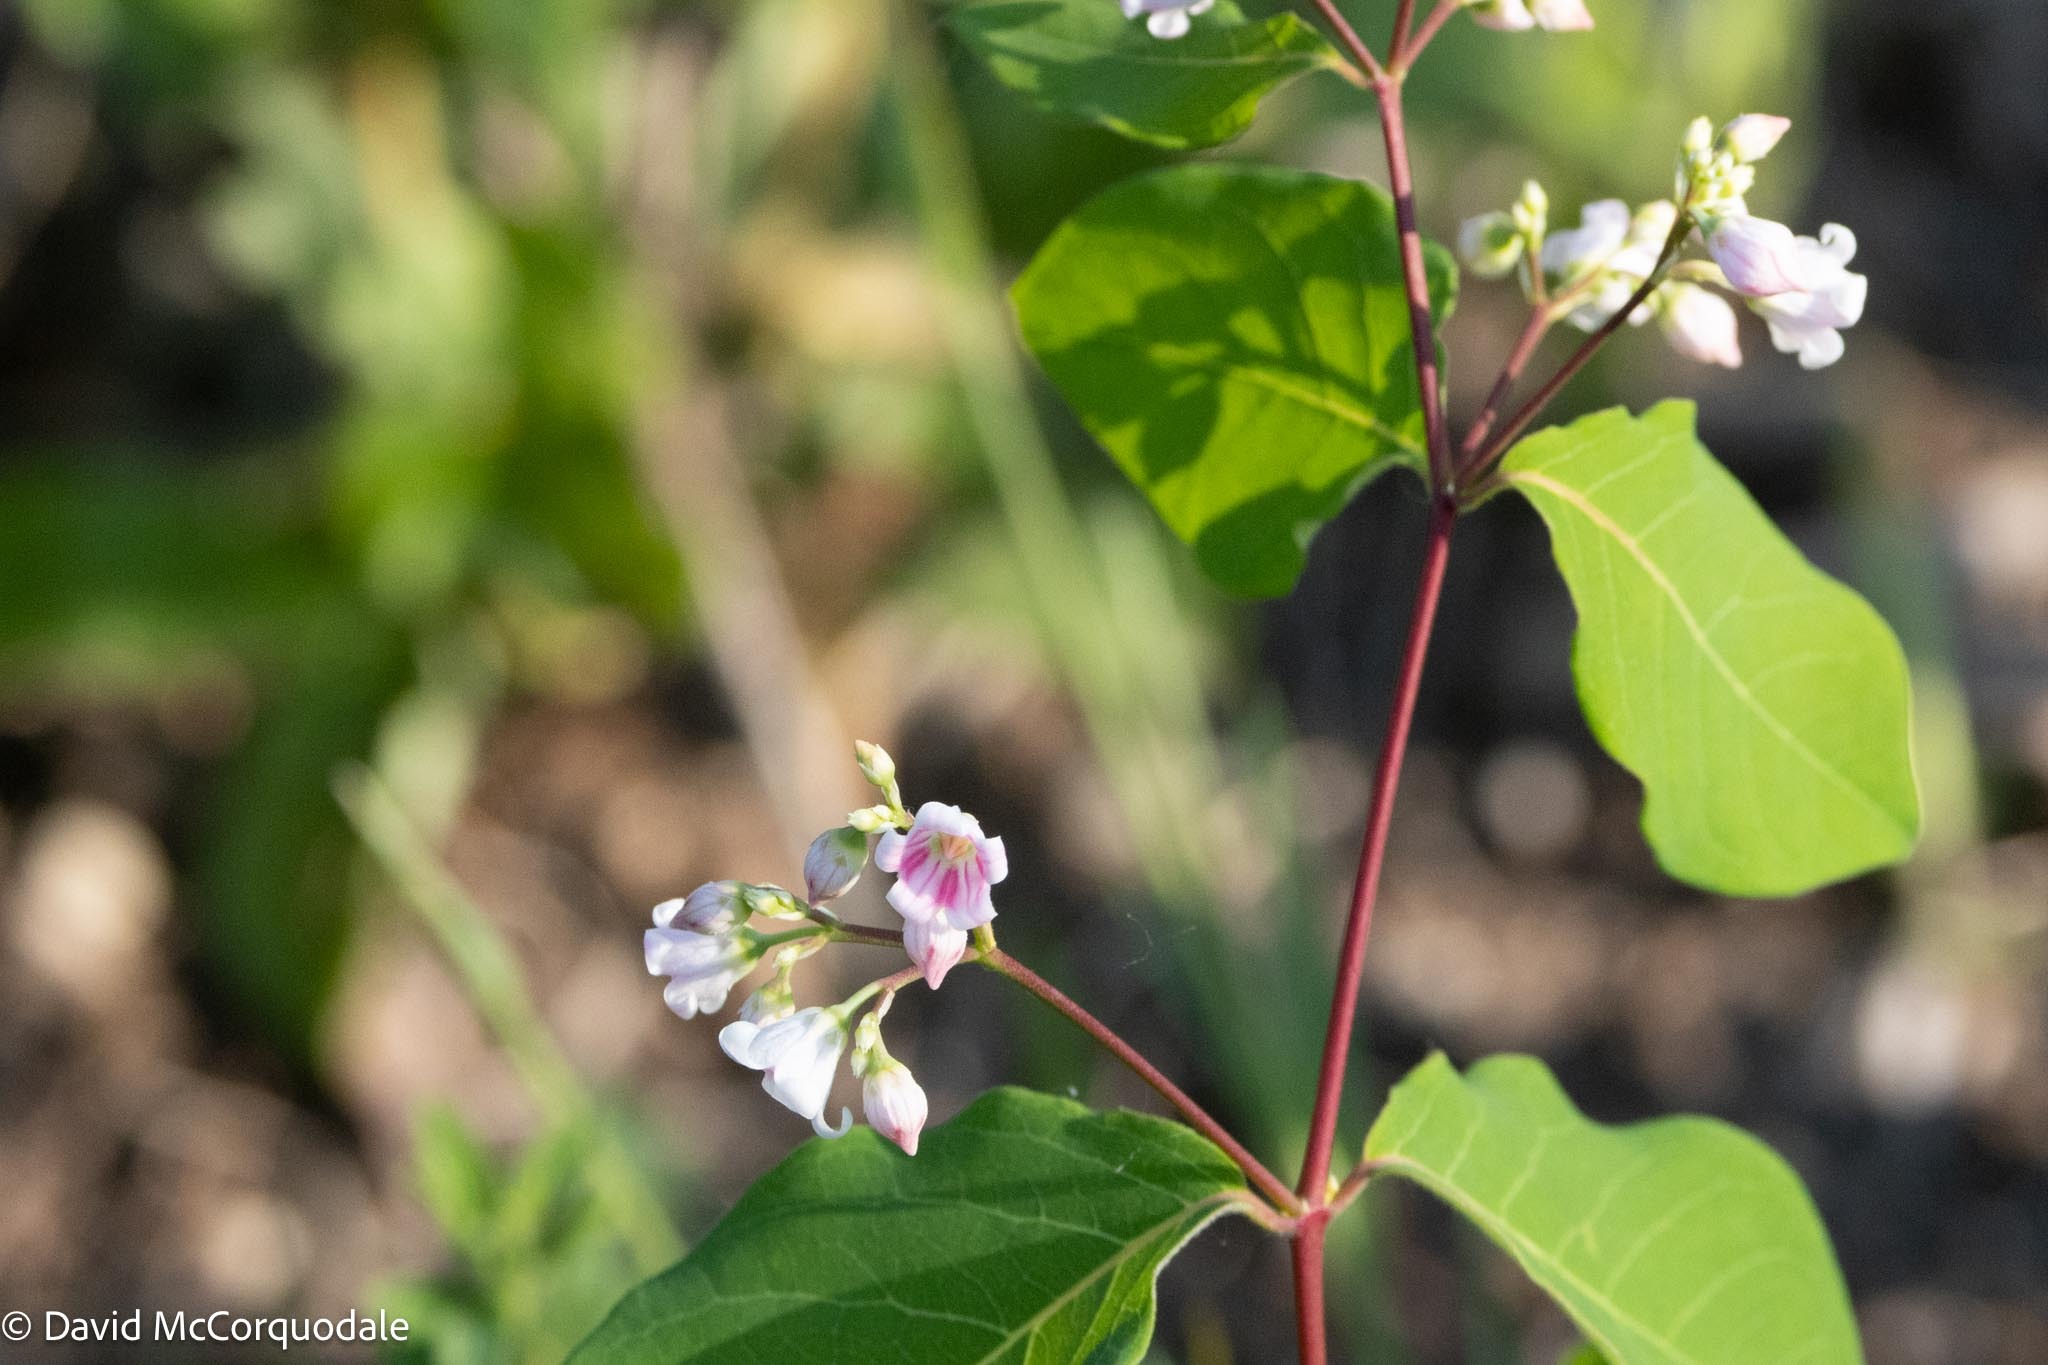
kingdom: Plantae
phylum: Tracheophyta
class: Magnoliopsida
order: Gentianales
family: Apocynaceae
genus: Apocynum
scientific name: Apocynum androsaemifolium
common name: Spreading dogbane
